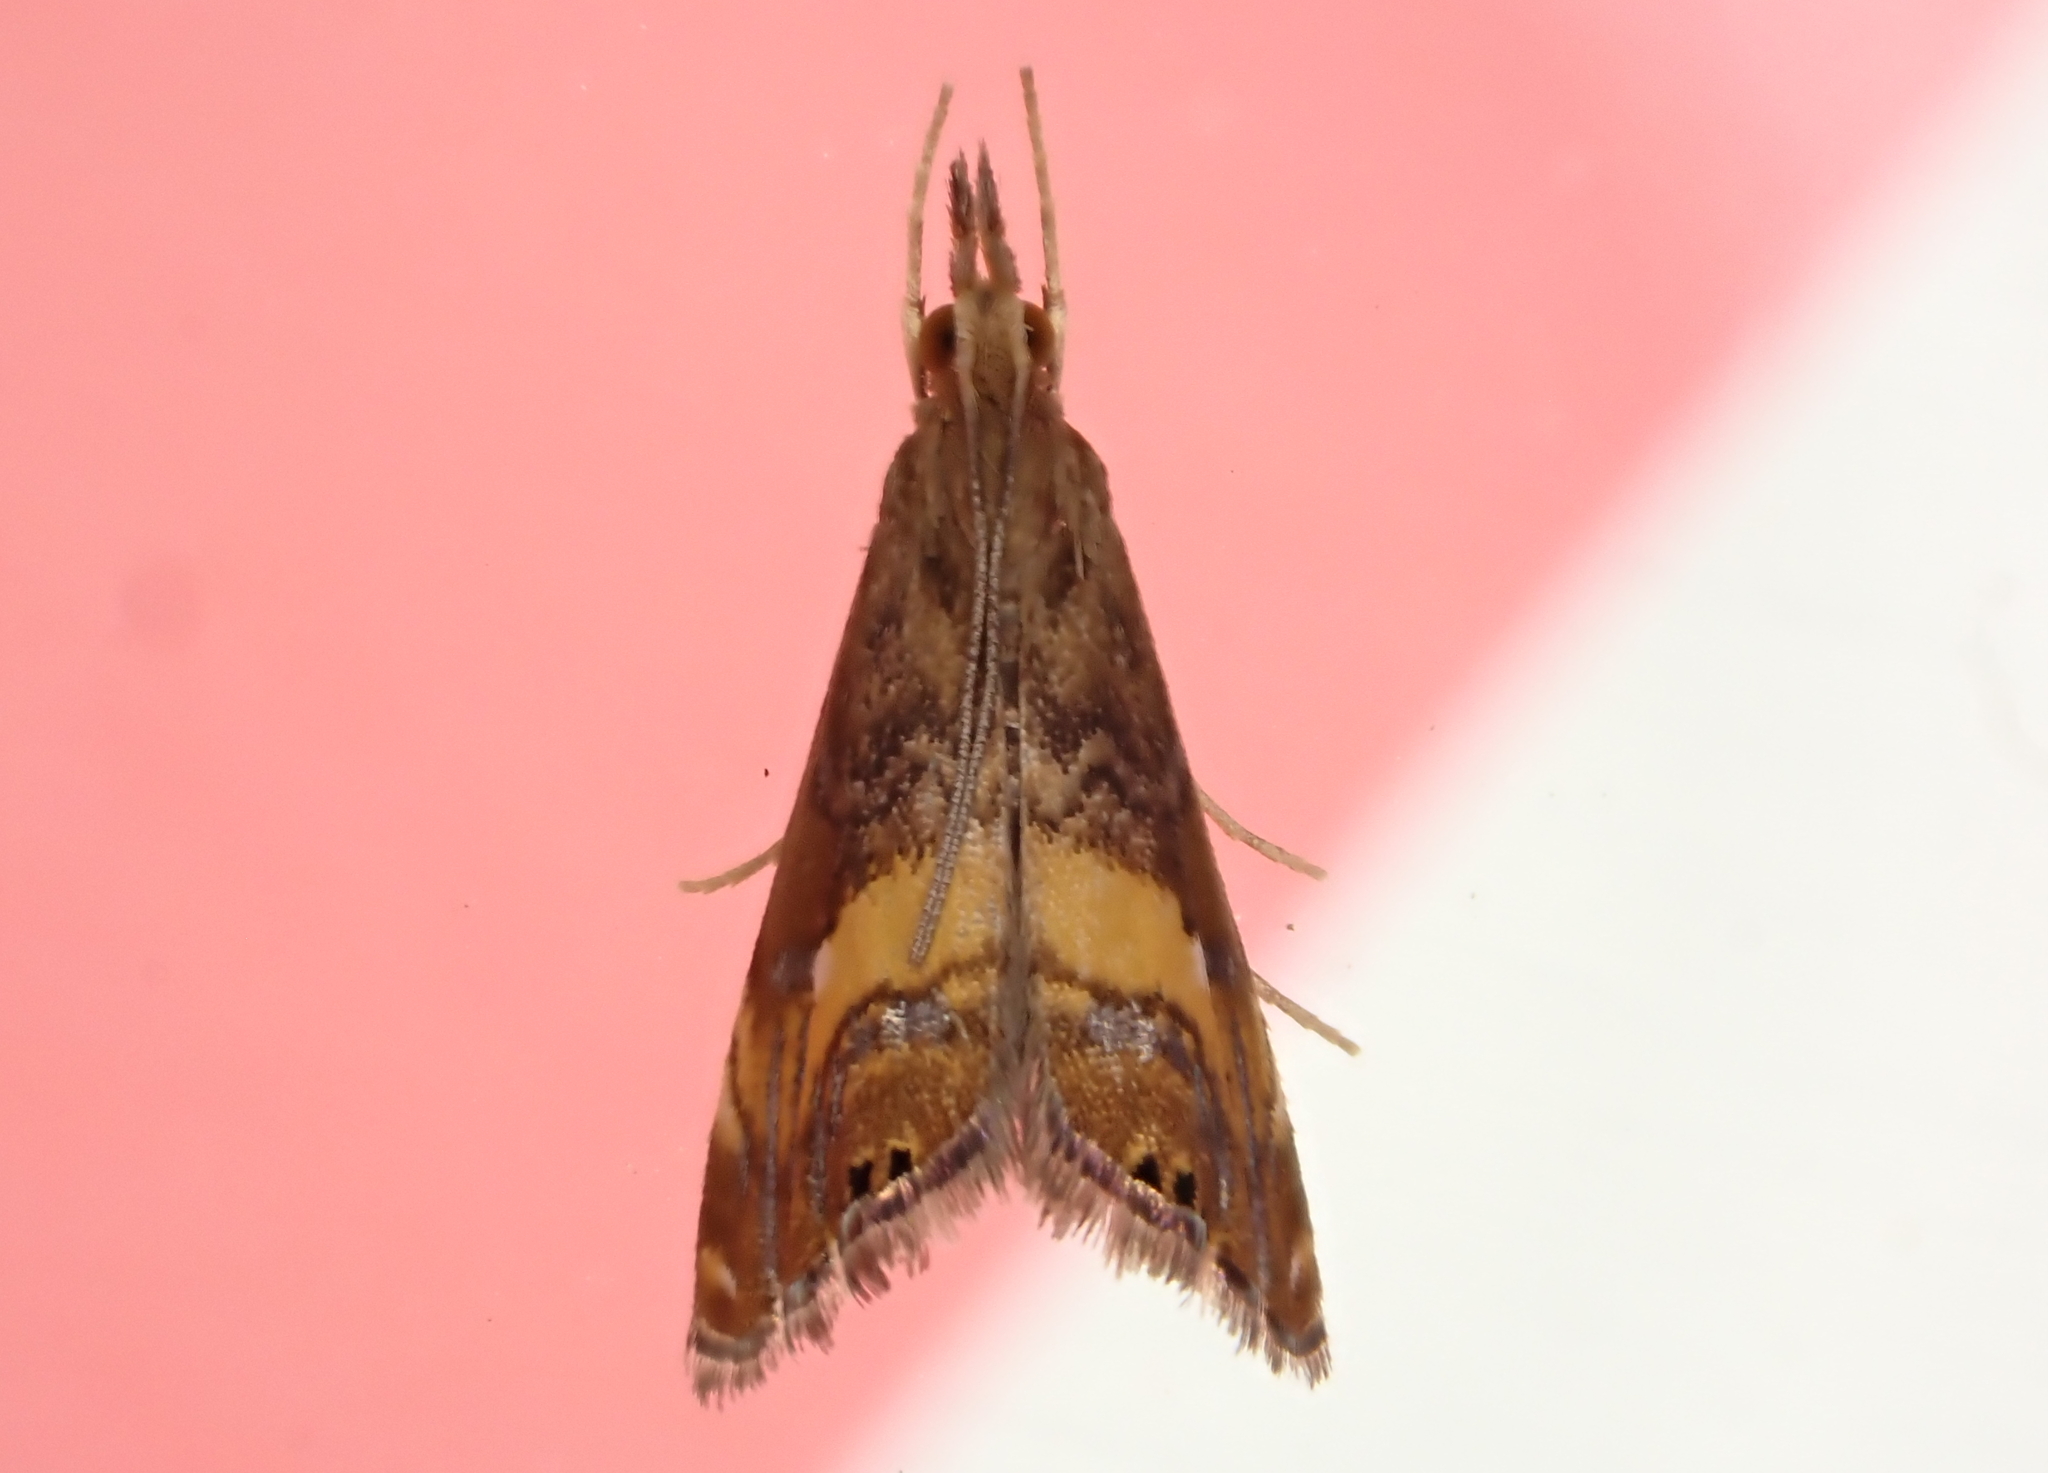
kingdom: Animalia
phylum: Arthropoda
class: Insecta
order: Lepidoptera
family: Crambidae
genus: Glaucocharis
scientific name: Glaucocharis chrysochyta
